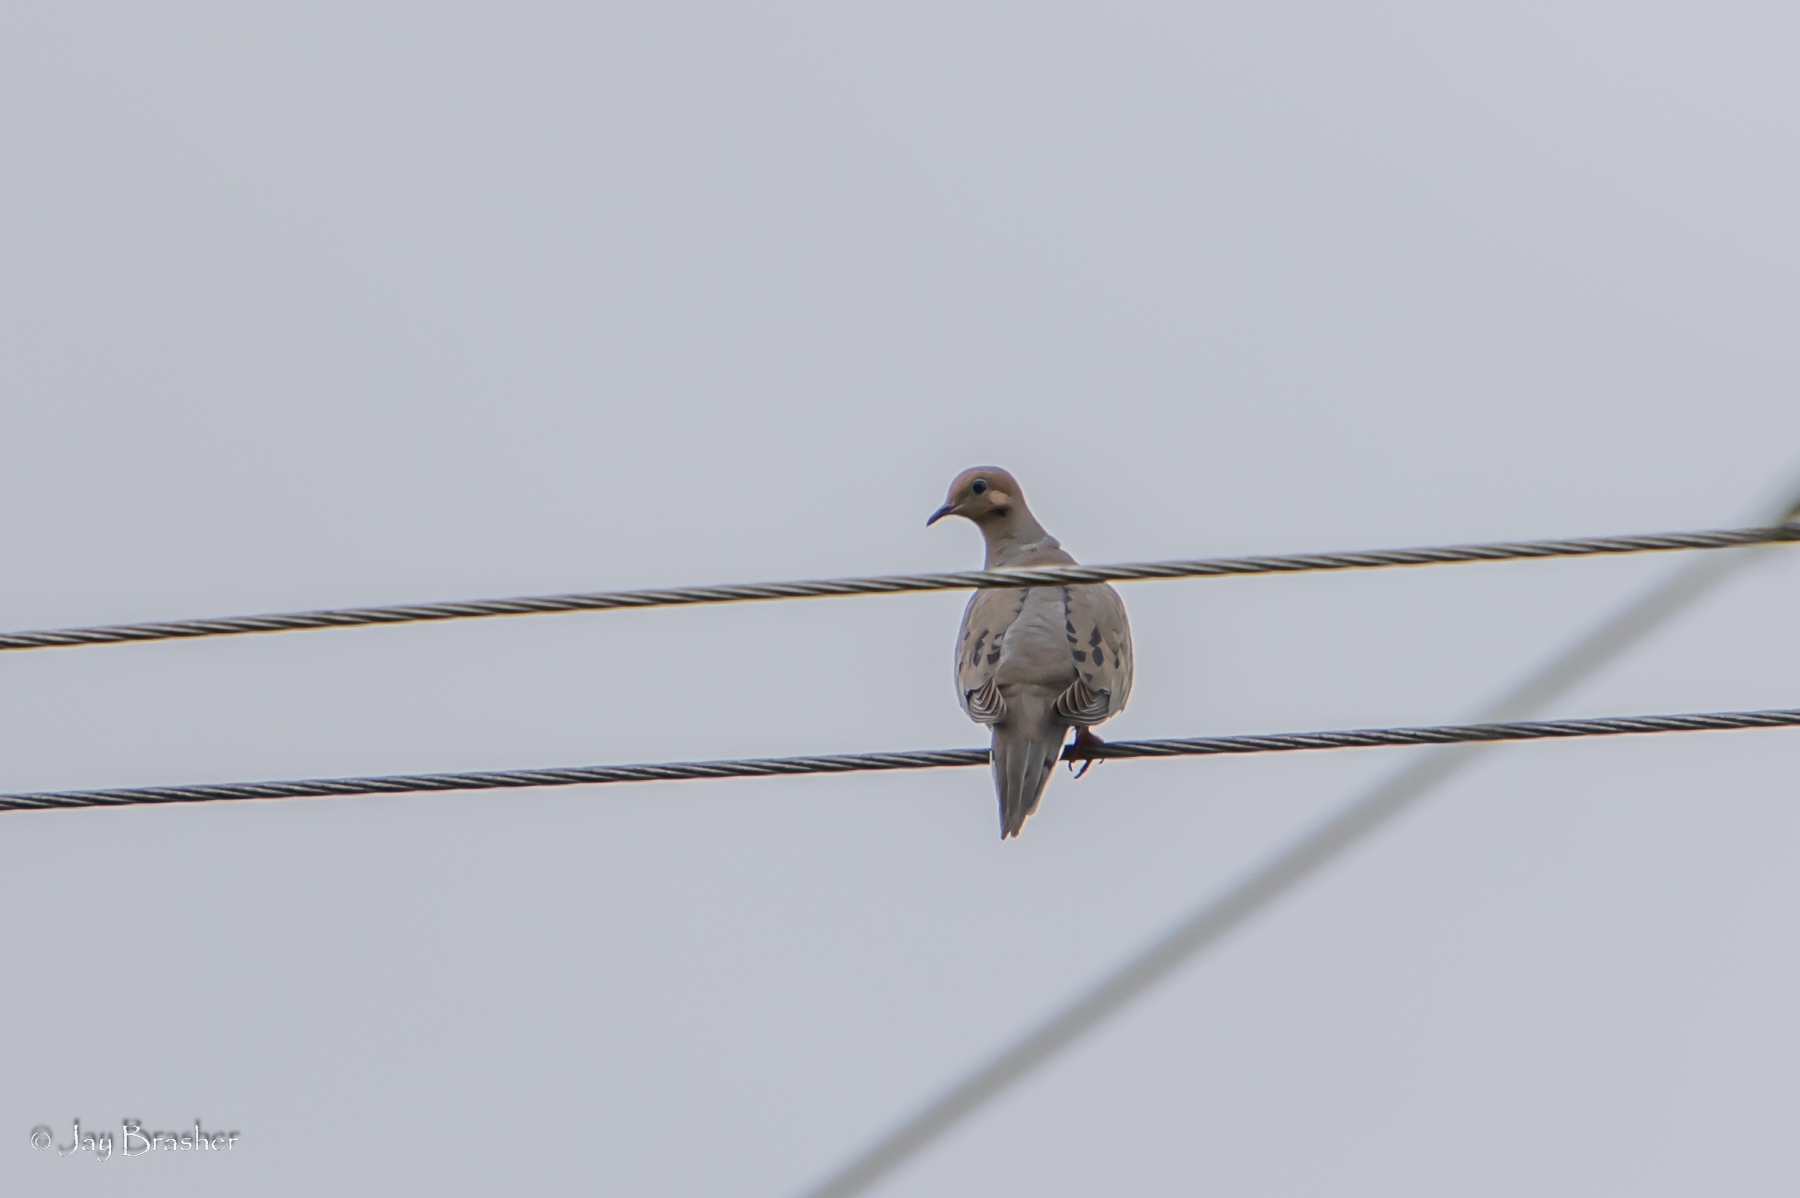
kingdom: Animalia
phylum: Chordata
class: Aves
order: Columbiformes
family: Columbidae
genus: Zenaida
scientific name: Zenaida macroura
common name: Mourning dove
